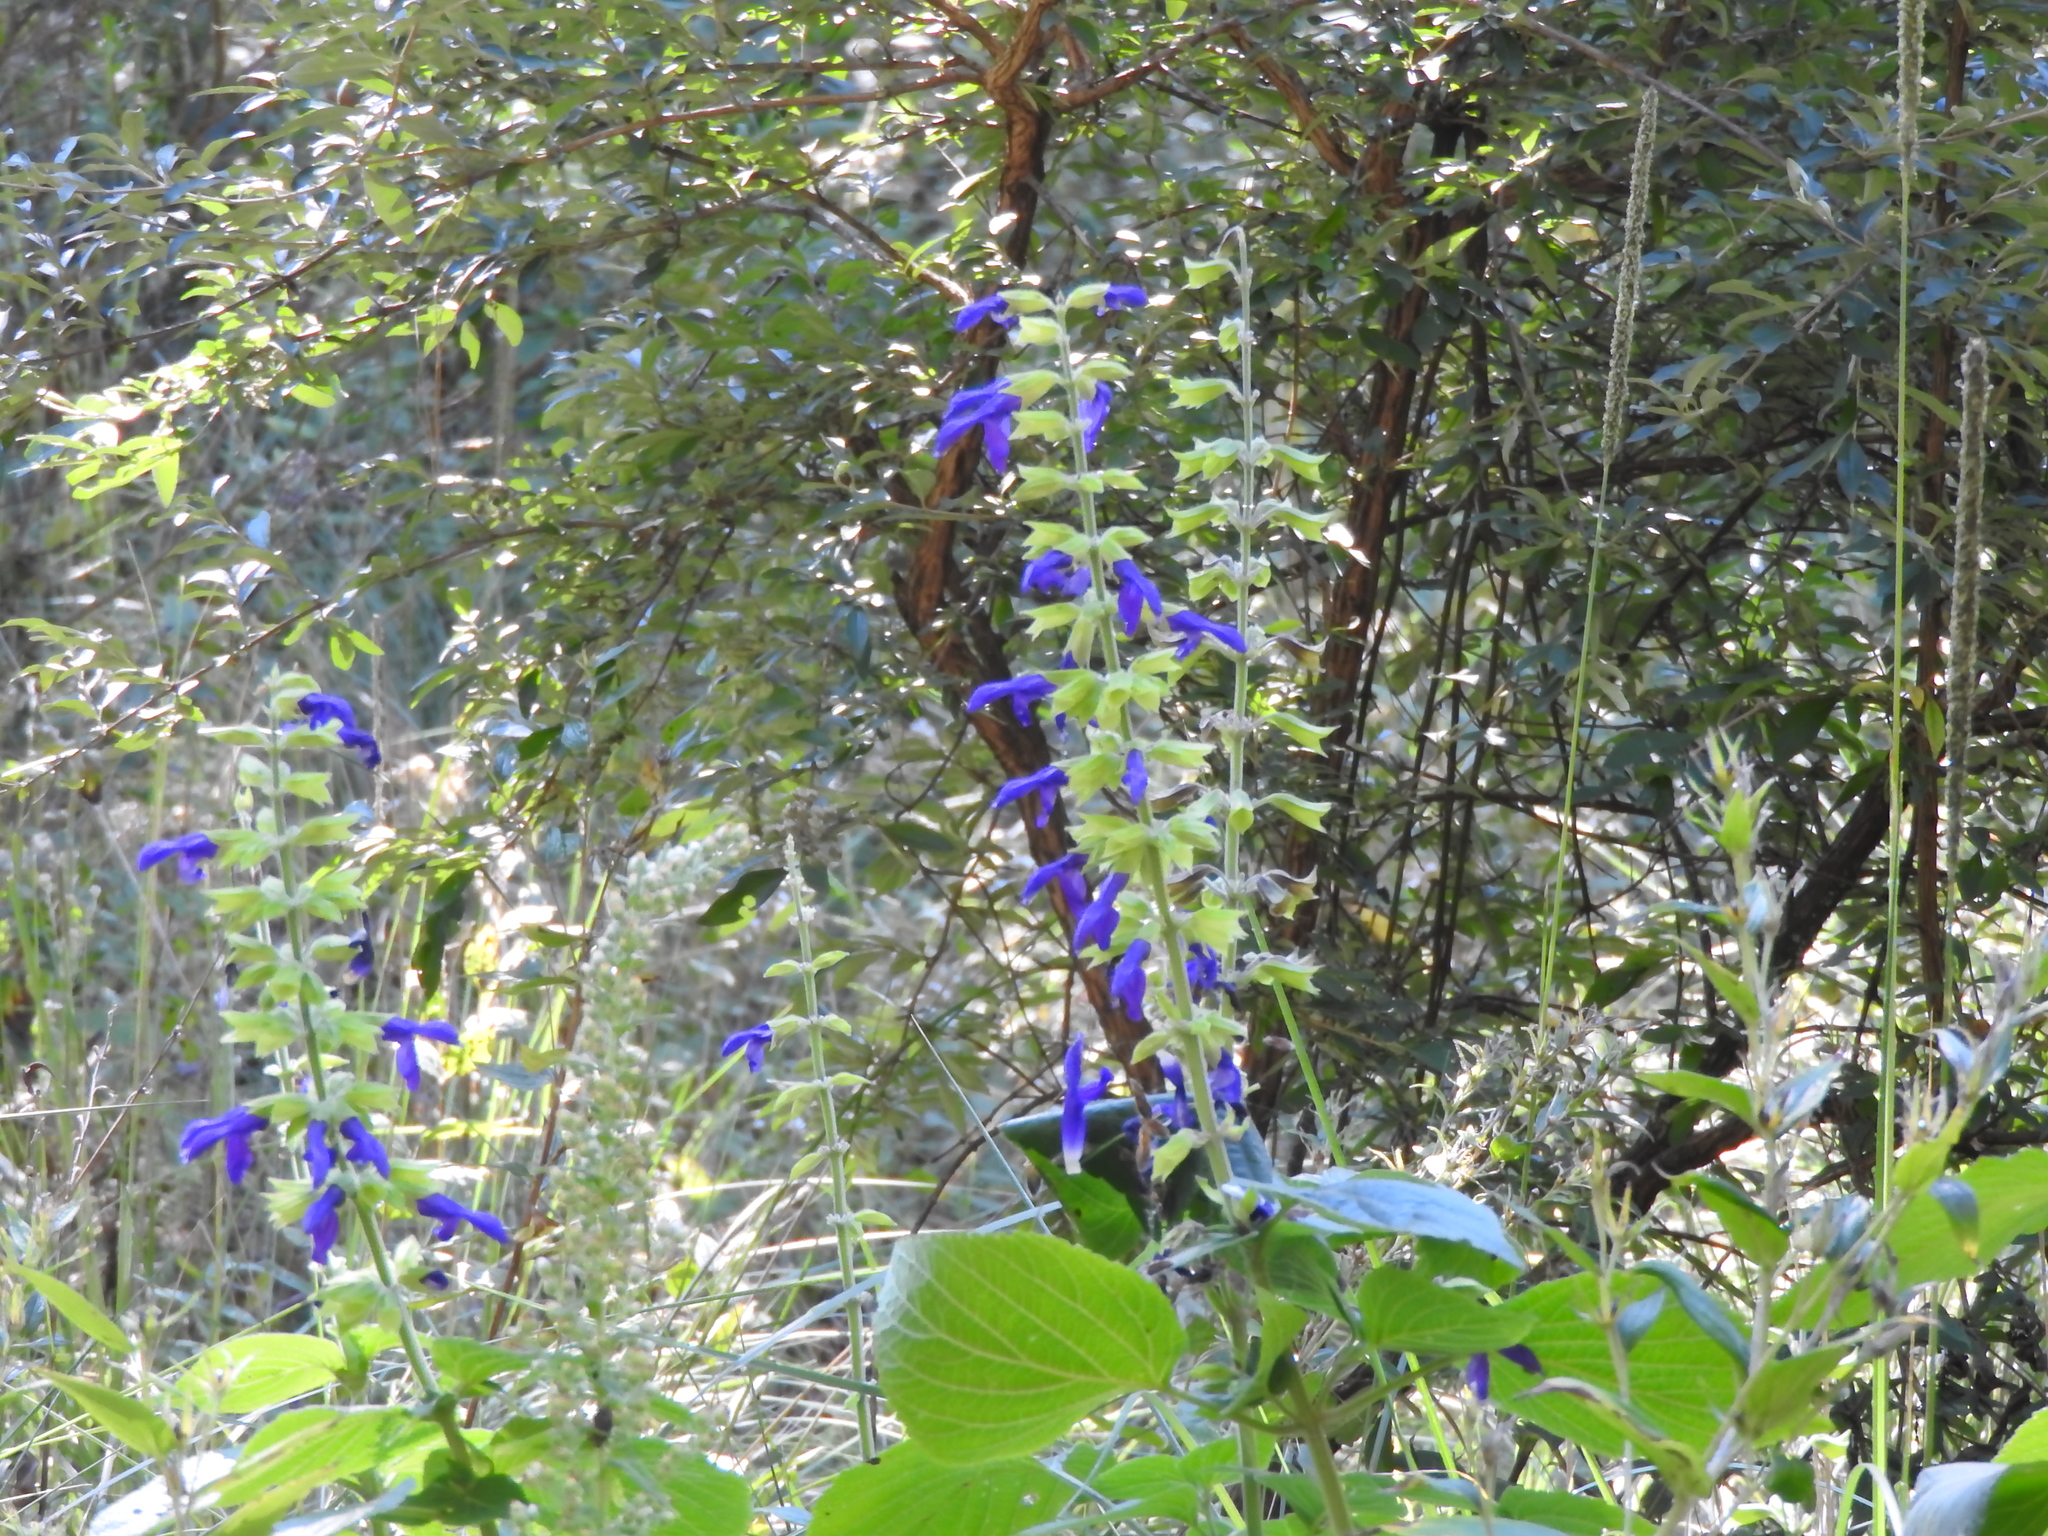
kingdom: Plantae
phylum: Tracheophyta
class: Magnoliopsida
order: Lamiales
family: Lamiaceae
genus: Salvia
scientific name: Salvia mexicana
